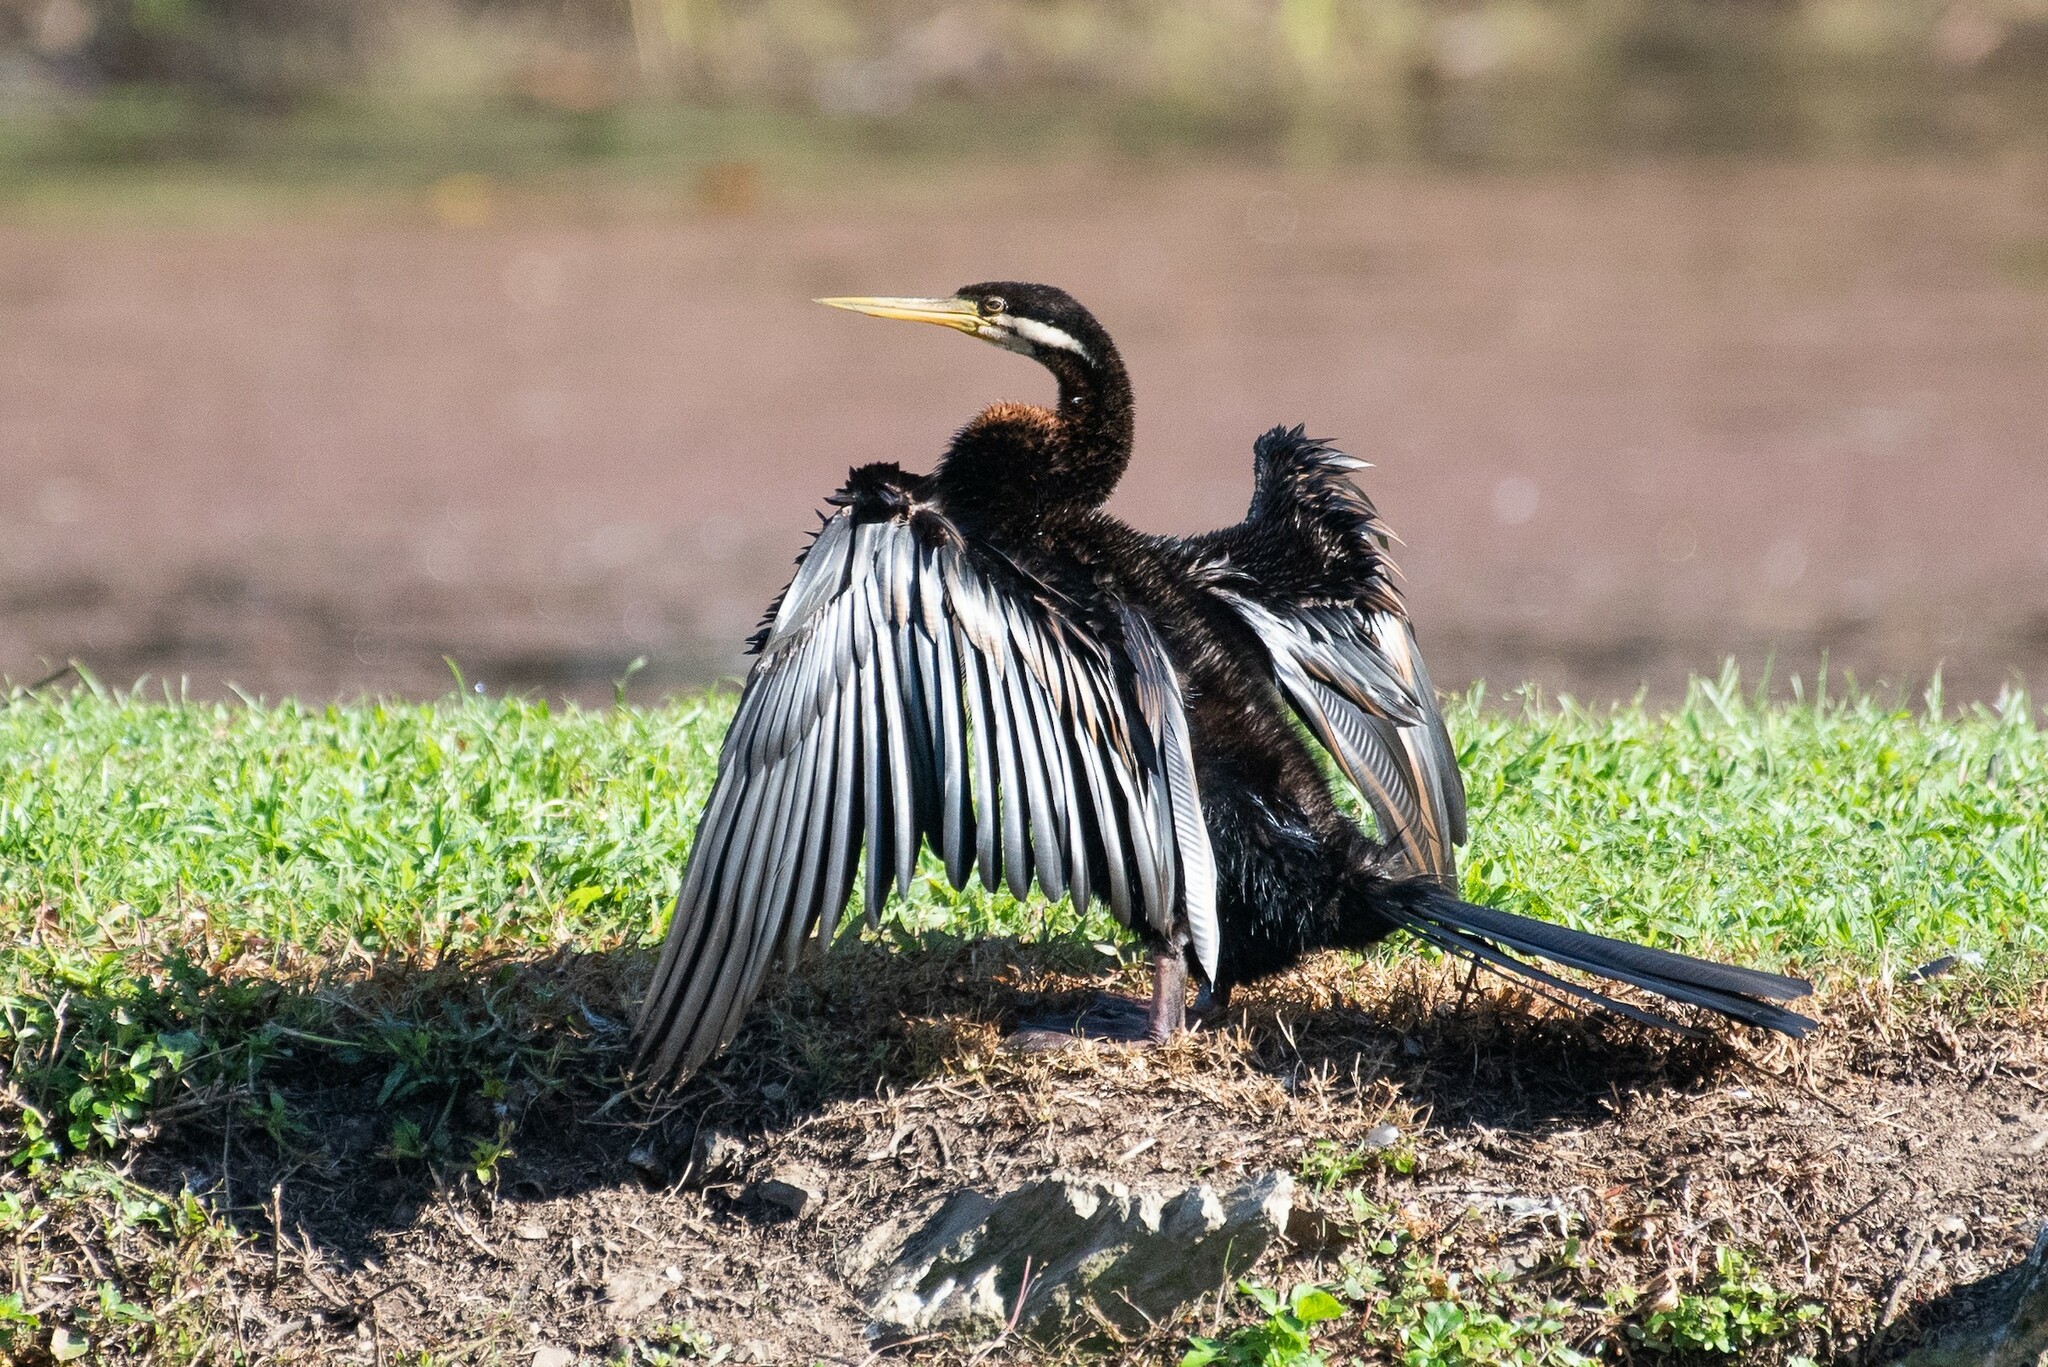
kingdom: Animalia
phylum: Chordata
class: Aves
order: Suliformes
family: Anhingidae
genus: Anhinga
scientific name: Anhinga novaehollandiae
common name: Australasian darter
